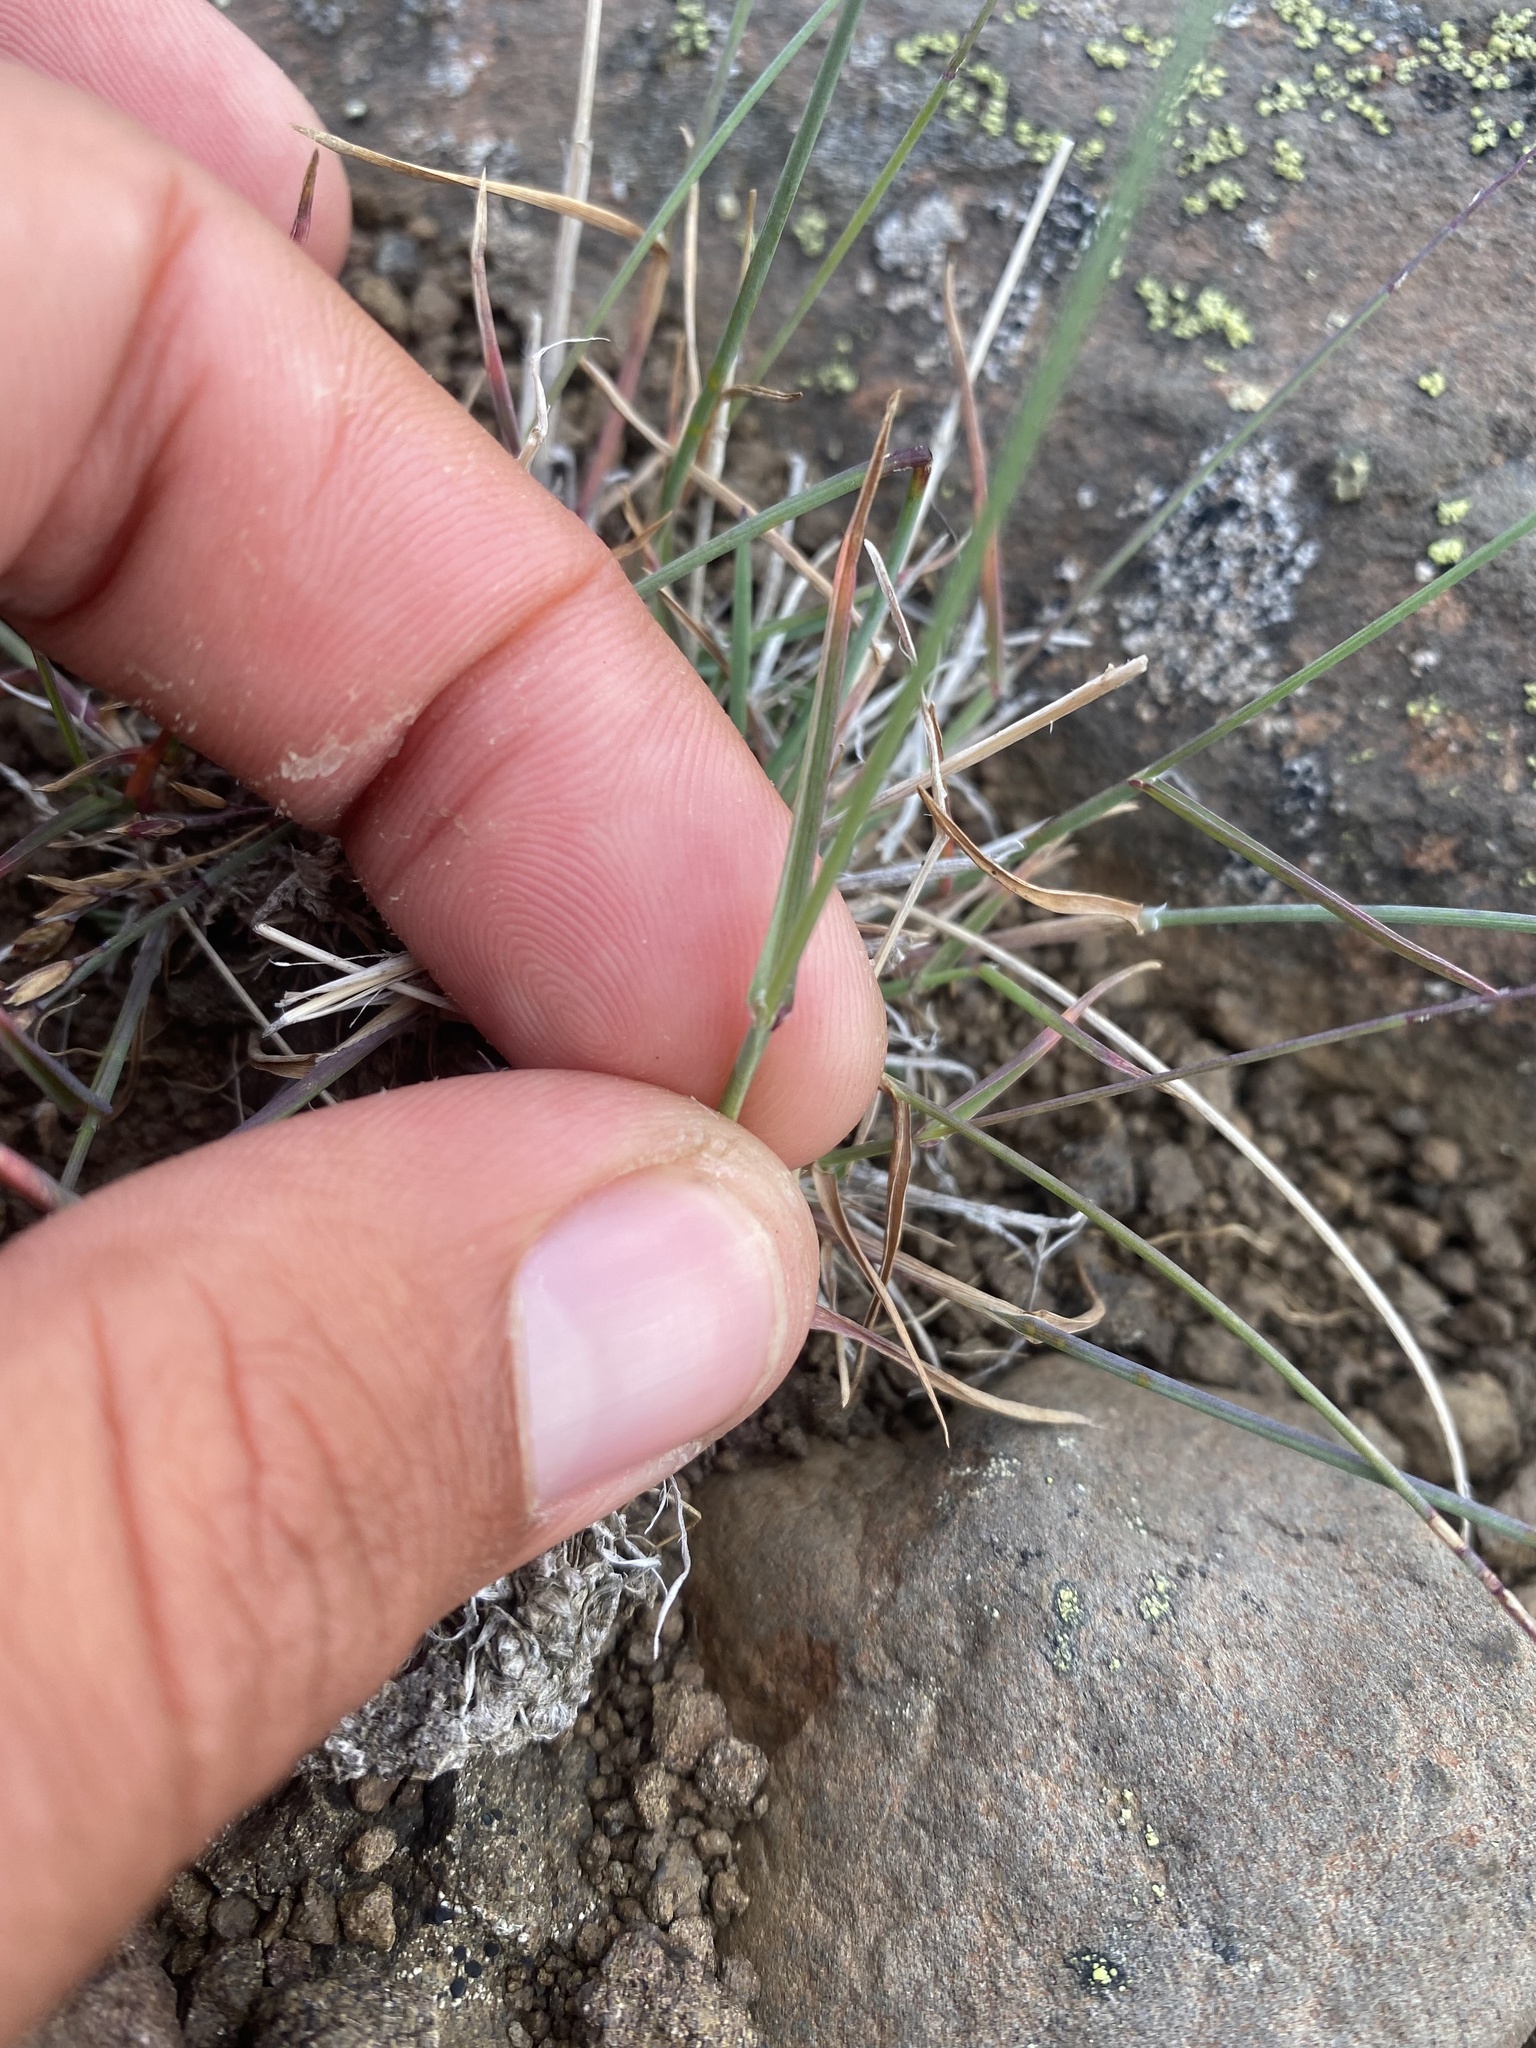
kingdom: Plantae
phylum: Tracheophyta
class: Liliopsida
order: Poales
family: Poaceae
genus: Poa
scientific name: Poa glauca
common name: Glaucous bluegrass
